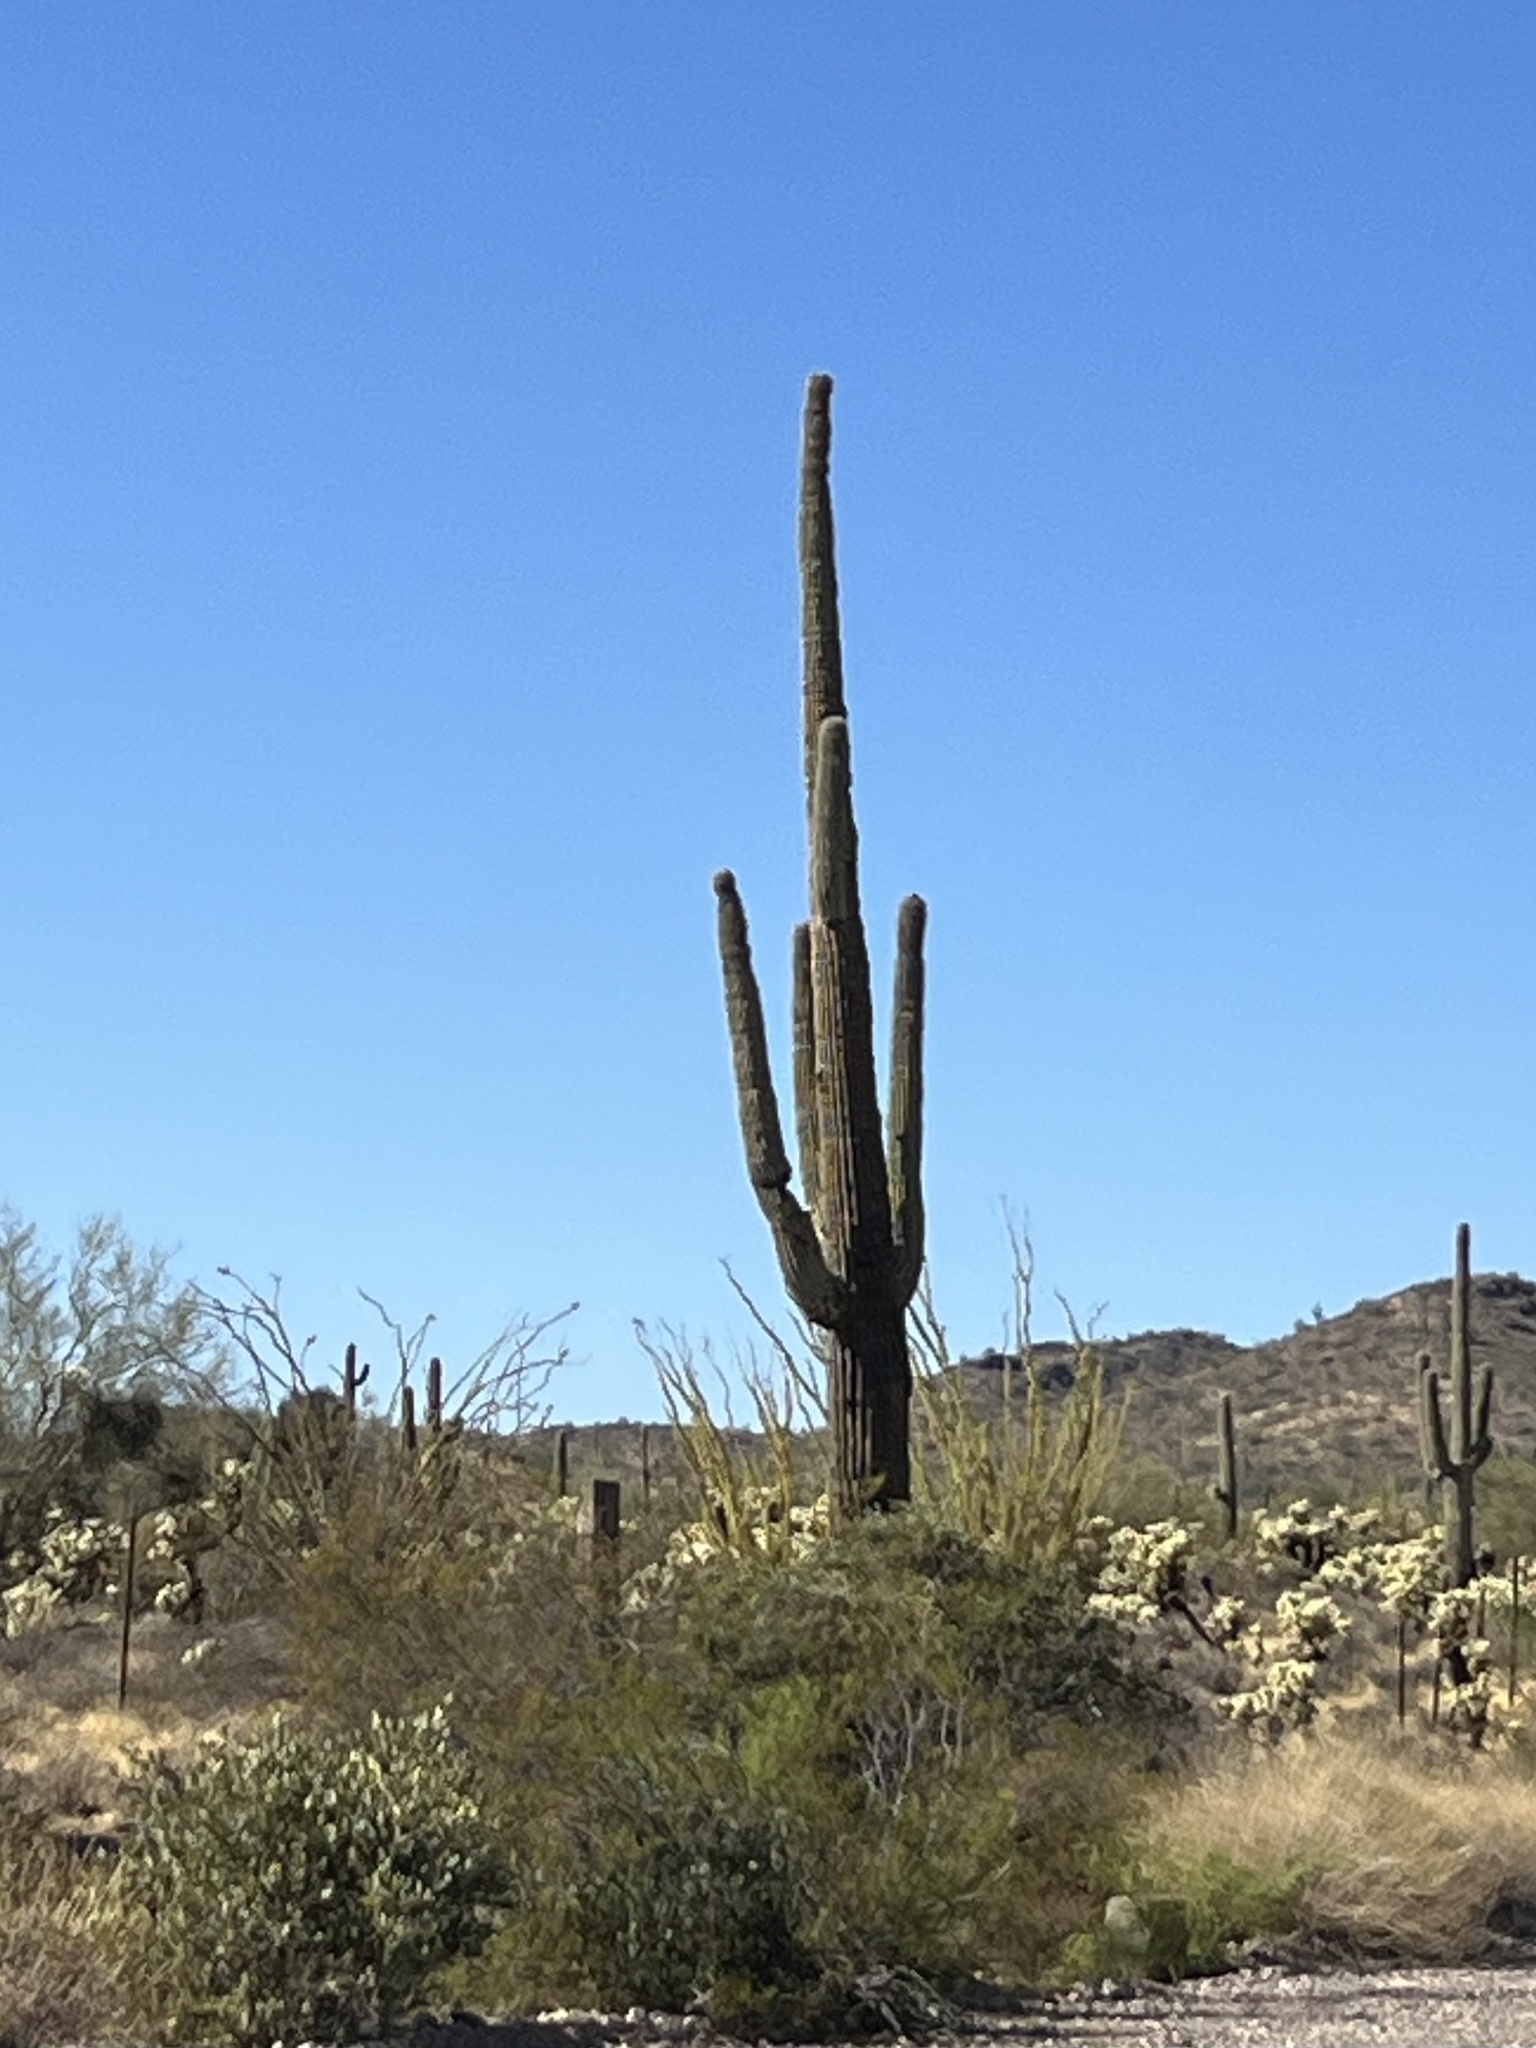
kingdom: Plantae
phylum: Tracheophyta
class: Magnoliopsida
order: Caryophyllales
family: Cactaceae
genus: Carnegiea
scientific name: Carnegiea gigantea
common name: Saguaro
